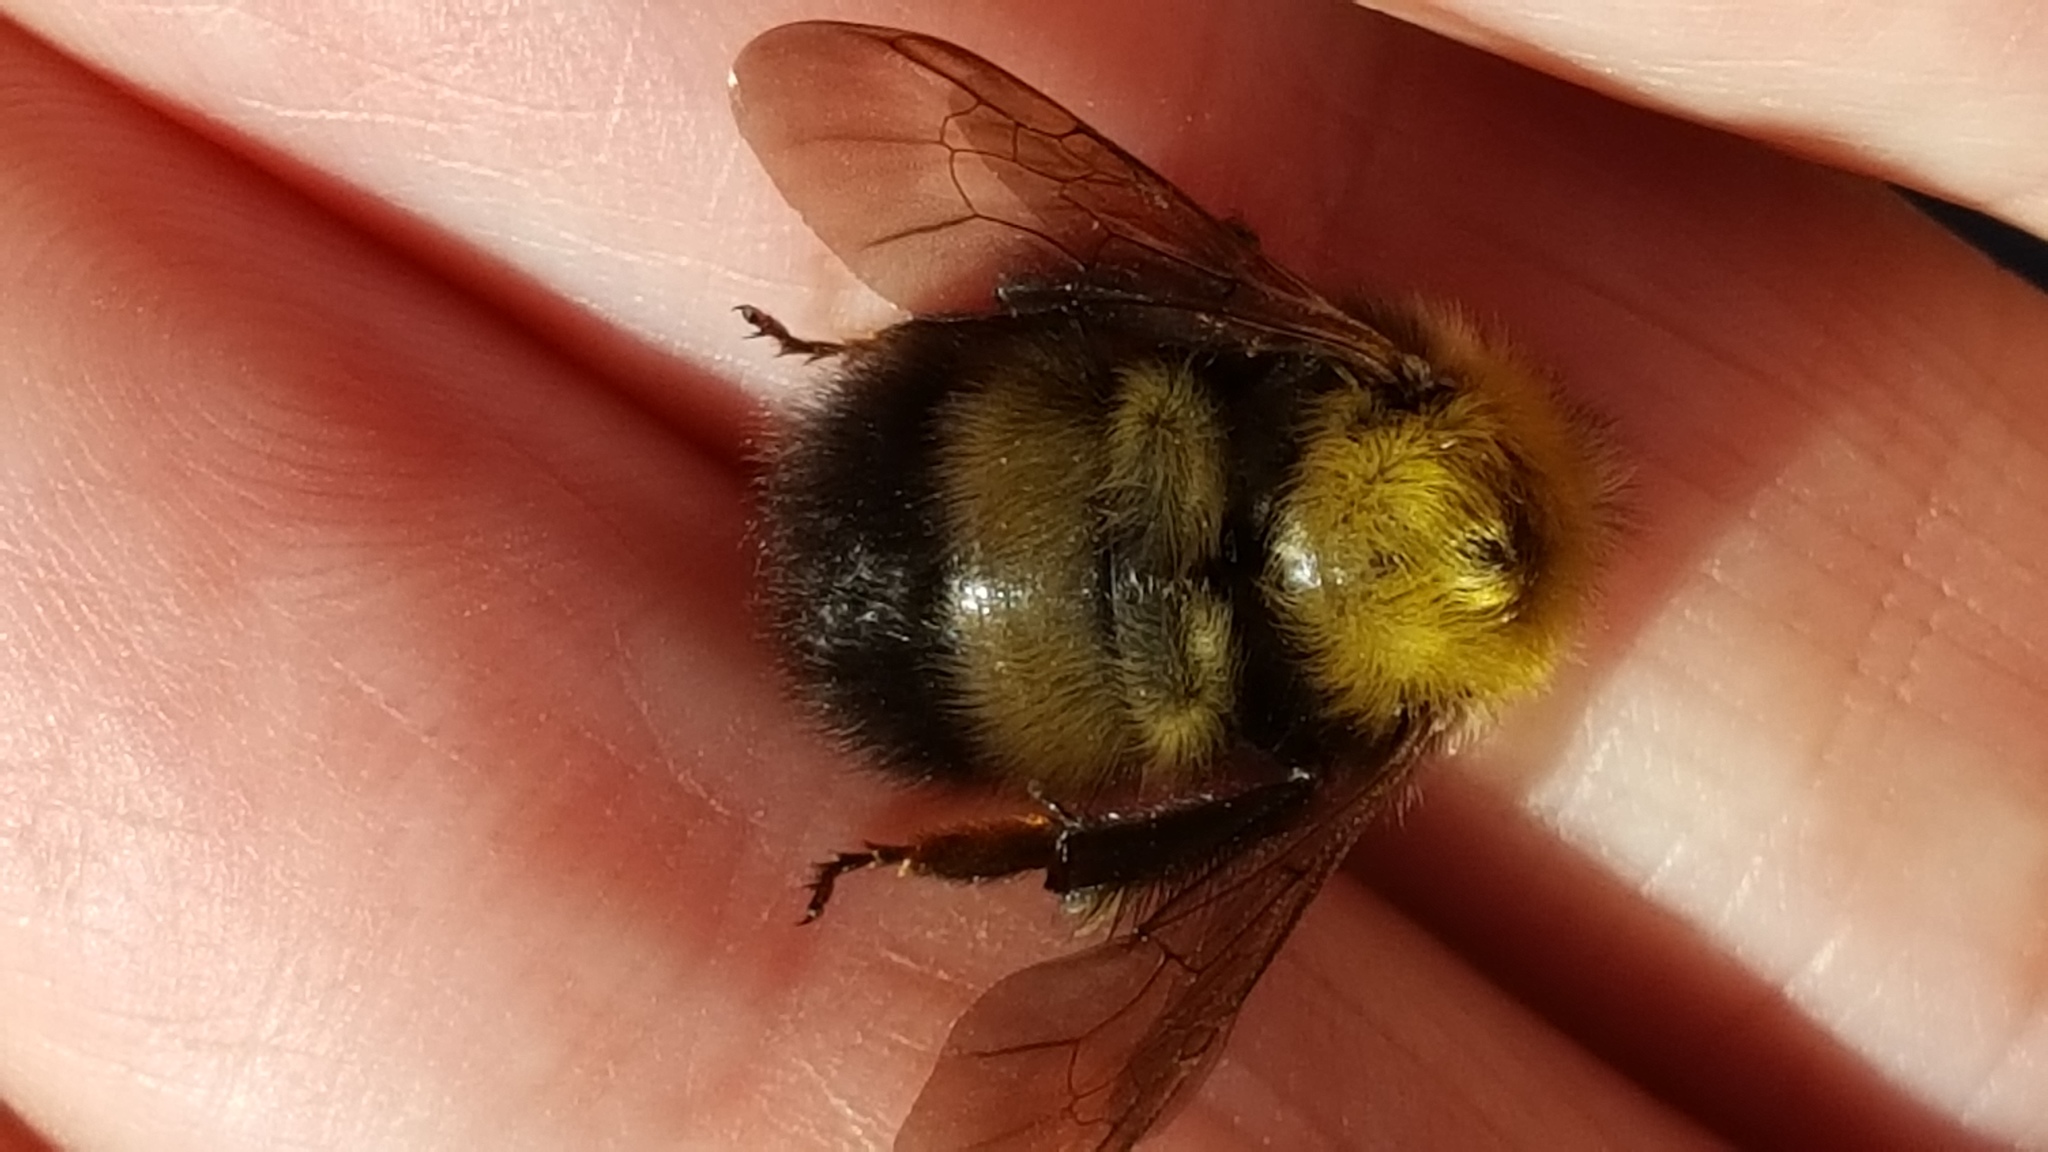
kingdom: Animalia
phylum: Arthropoda
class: Insecta
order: Hymenoptera
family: Apidae
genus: Bombus
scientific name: Bombus perplexus
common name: Confusing bumble bee
